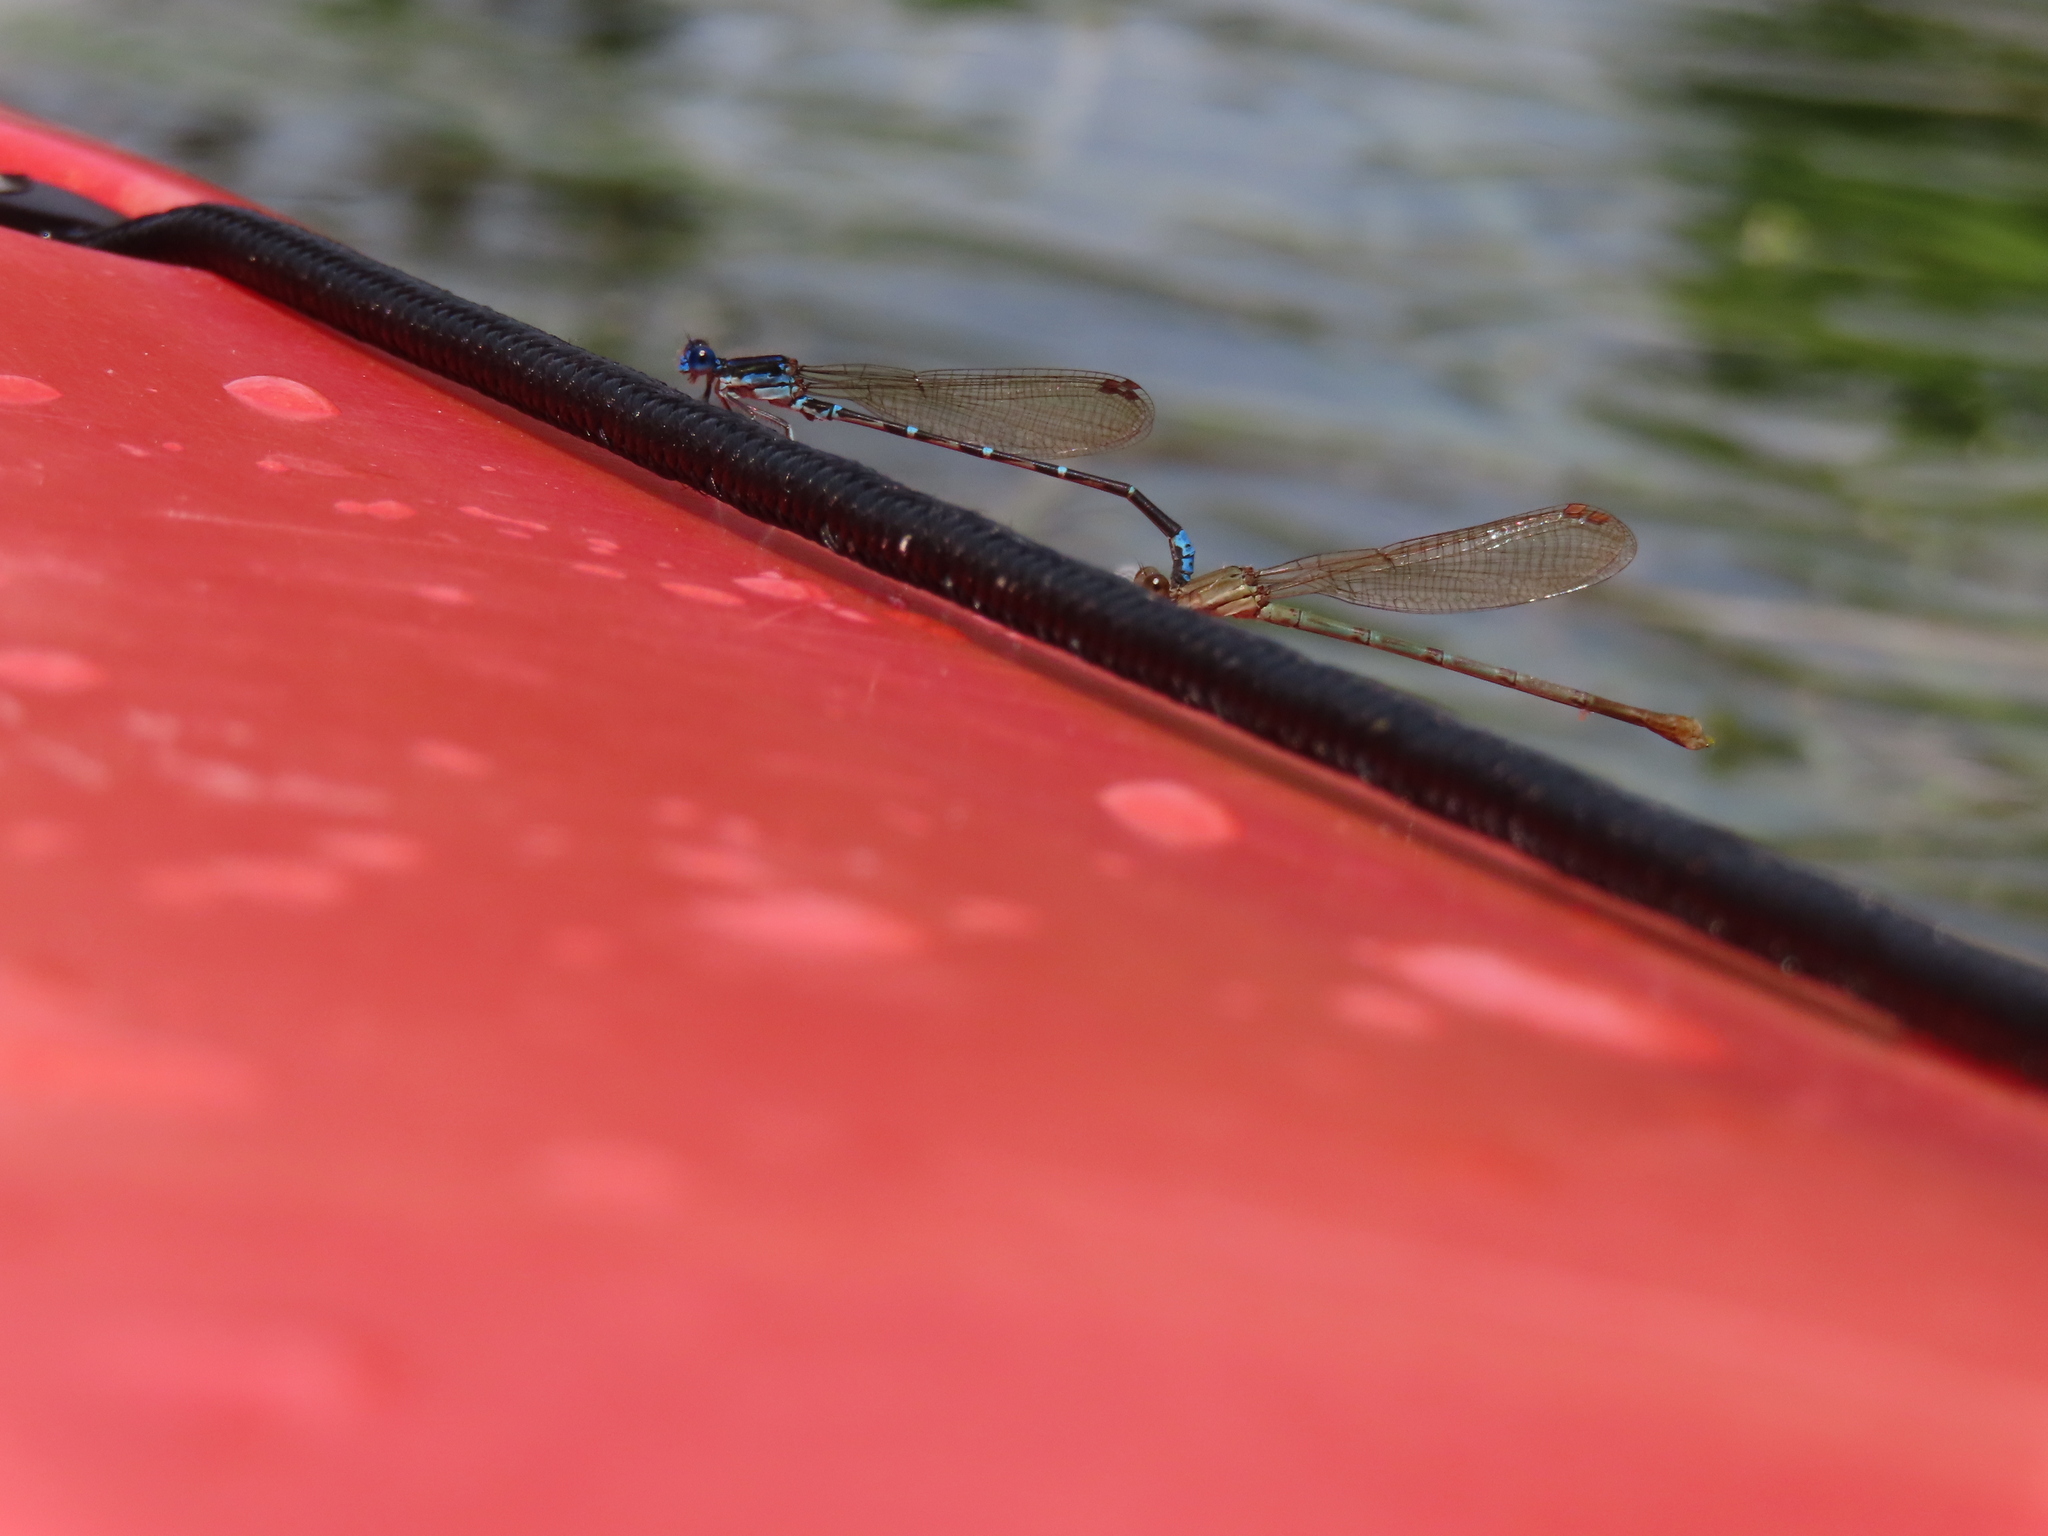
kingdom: Animalia
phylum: Arthropoda
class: Insecta
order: Odonata
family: Coenagrionidae
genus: Argia
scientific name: Argia sedula
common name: Blue-ringed dancer
